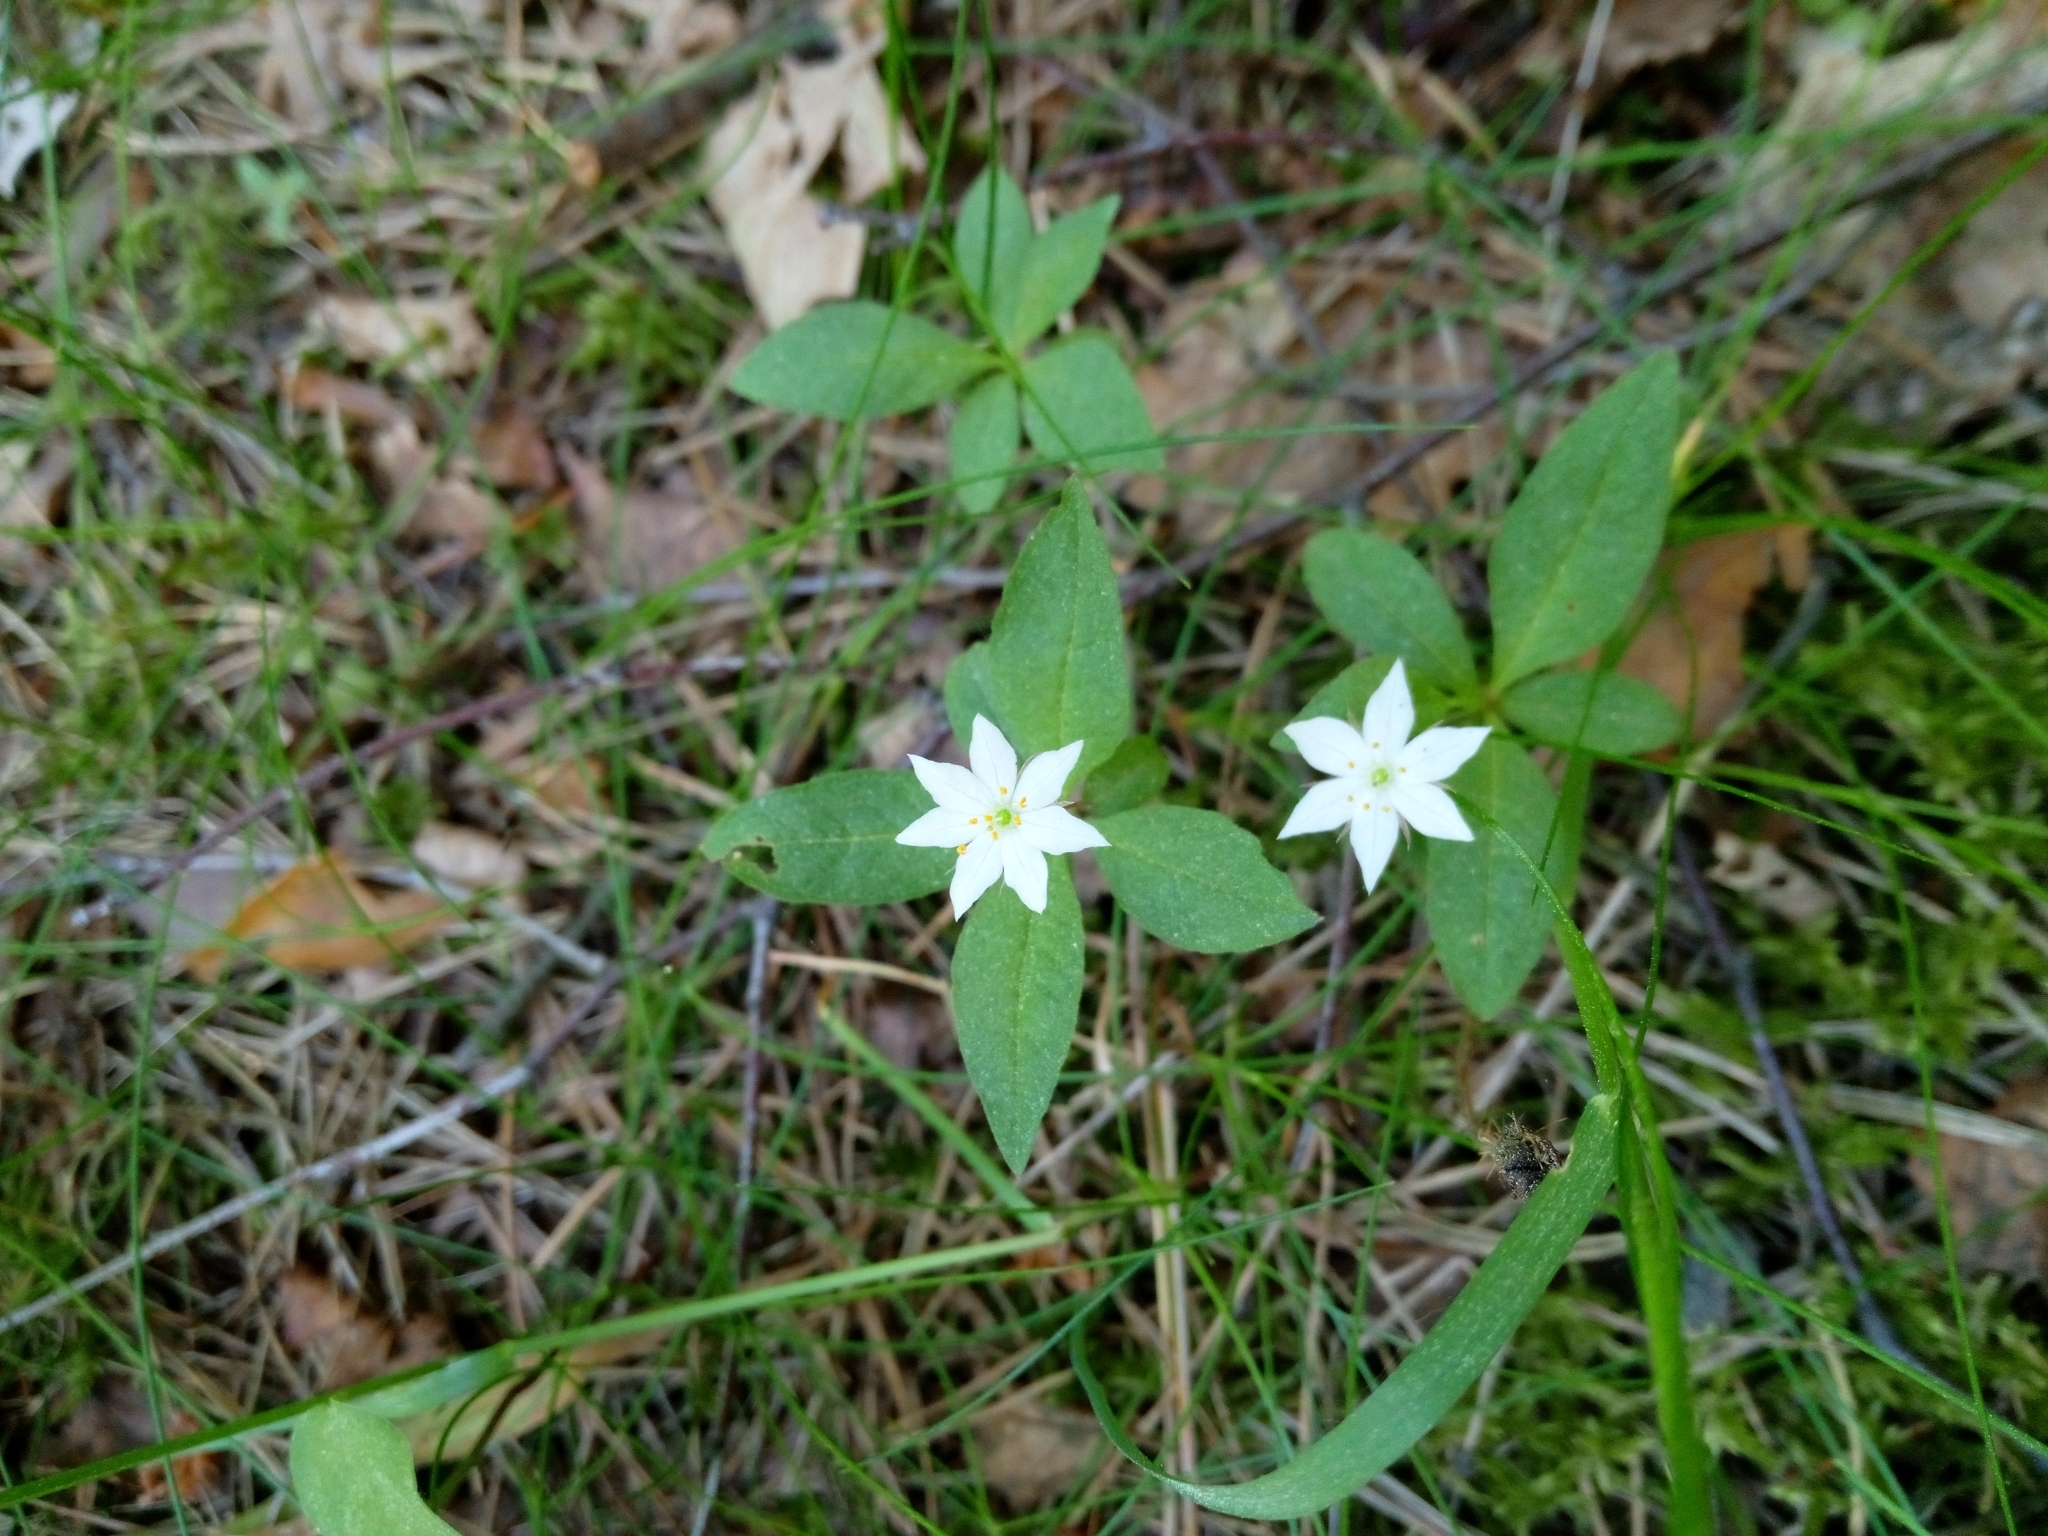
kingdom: Plantae
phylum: Tracheophyta
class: Magnoliopsida
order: Ericales
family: Primulaceae
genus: Lysimachia
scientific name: Lysimachia europaea
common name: Arctic starflower
